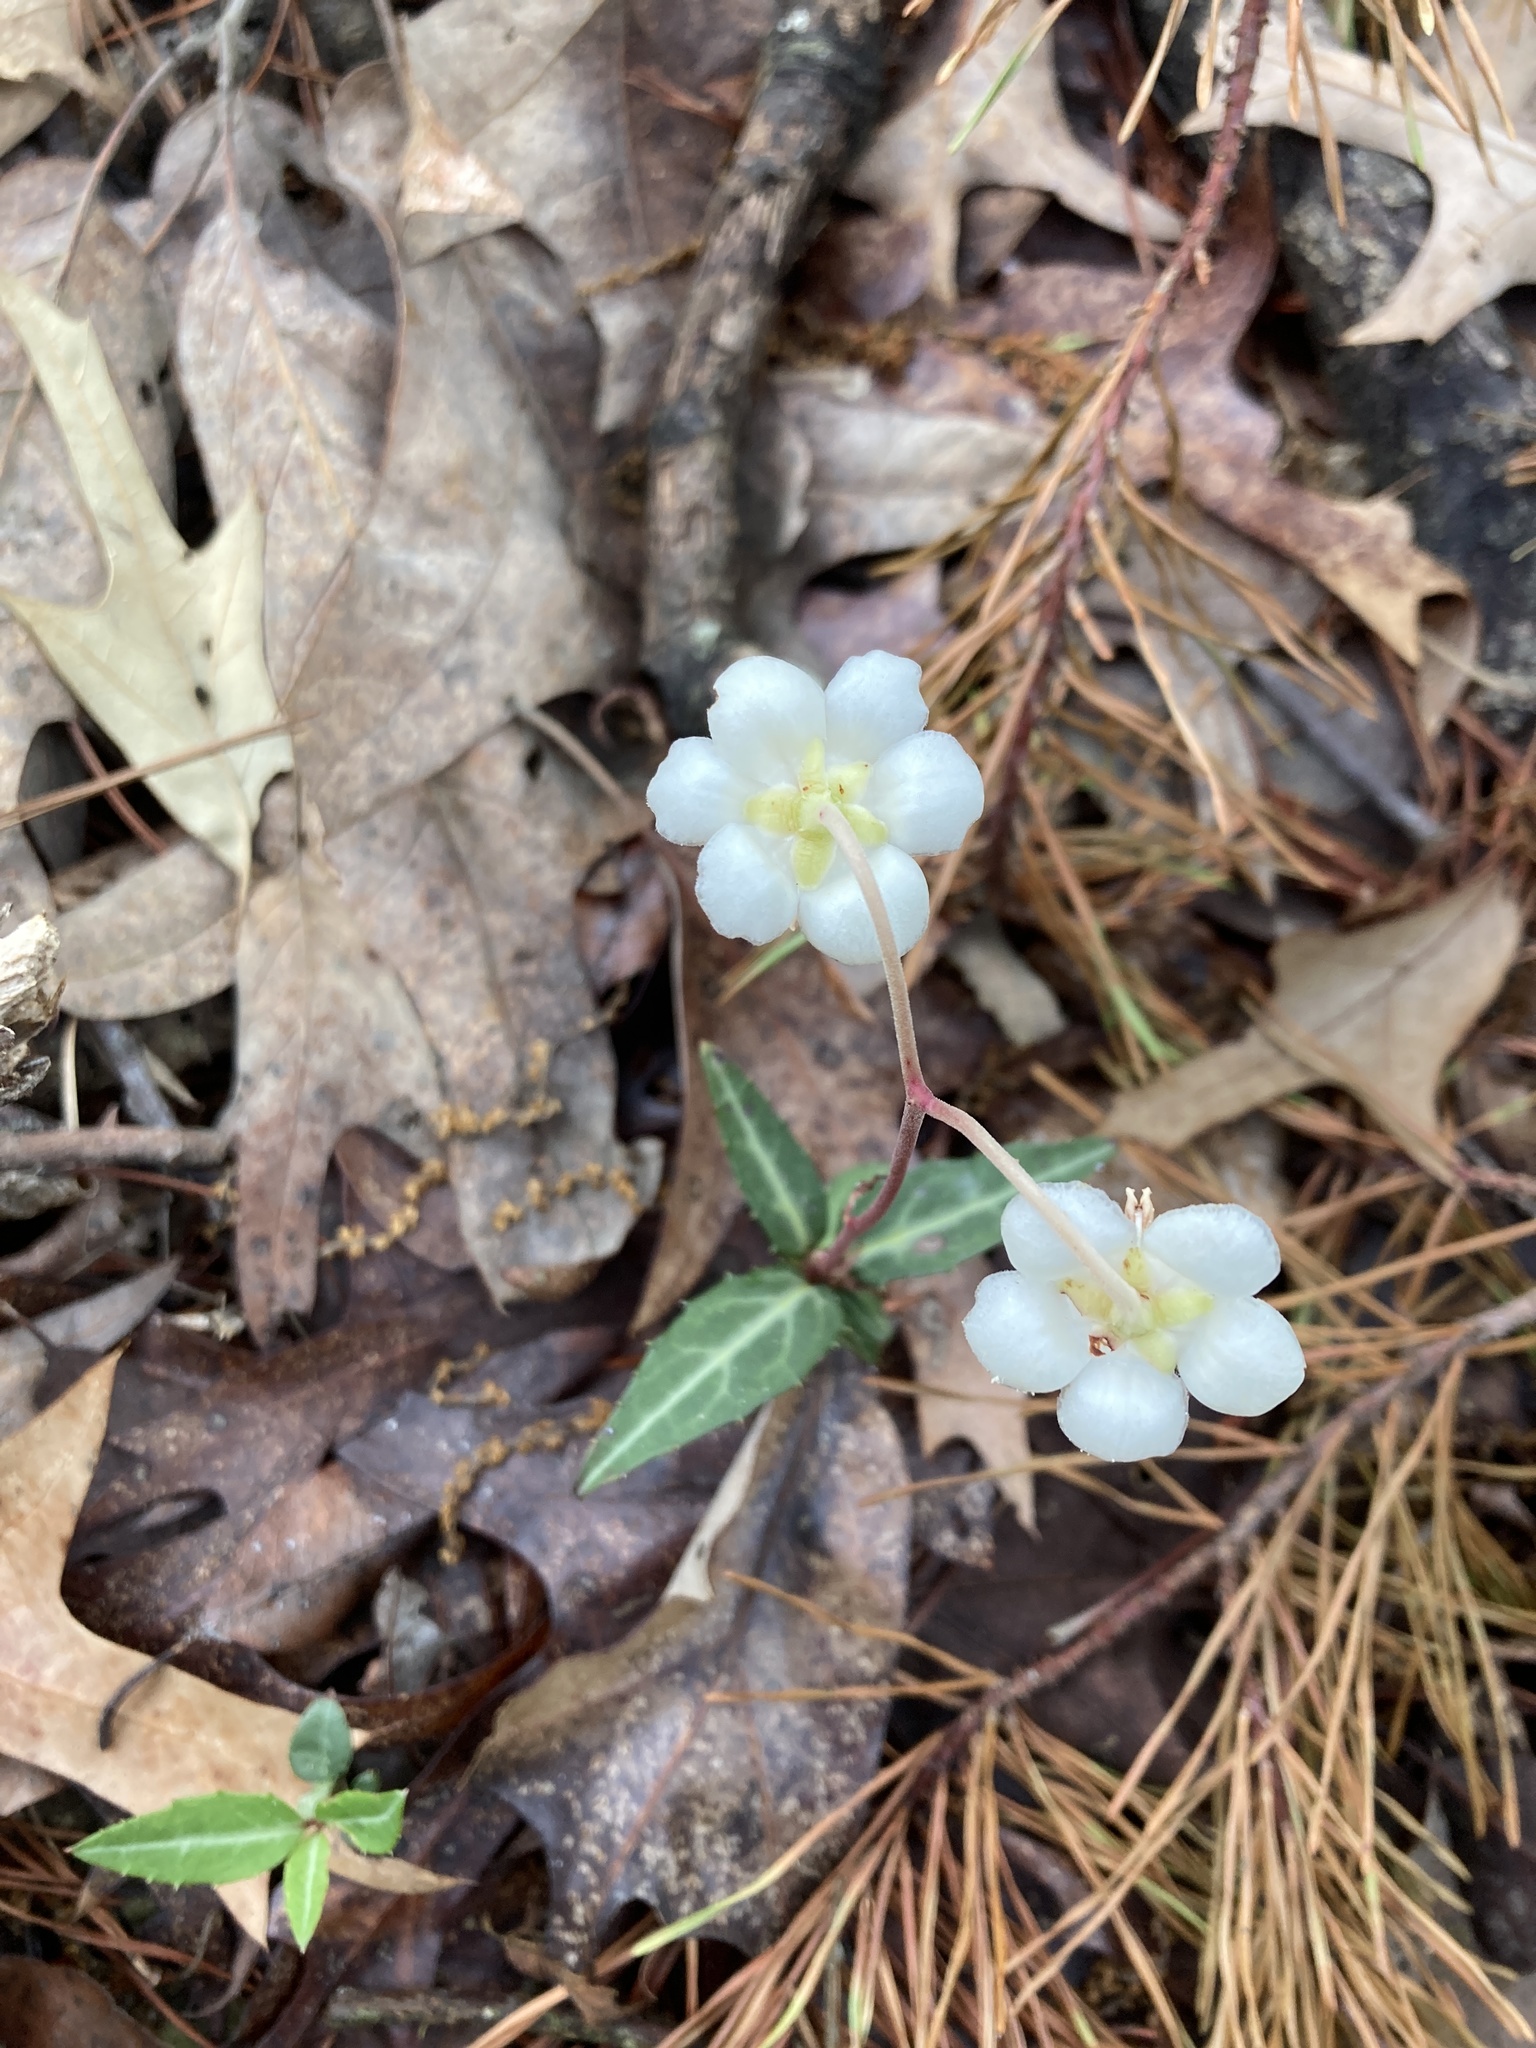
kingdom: Plantae
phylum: Tracheophyta
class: Magnoliopsida
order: Ericales
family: Ericaceae
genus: Chimaphila
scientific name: Chimaphila maculata
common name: Spotted pipsissewa
